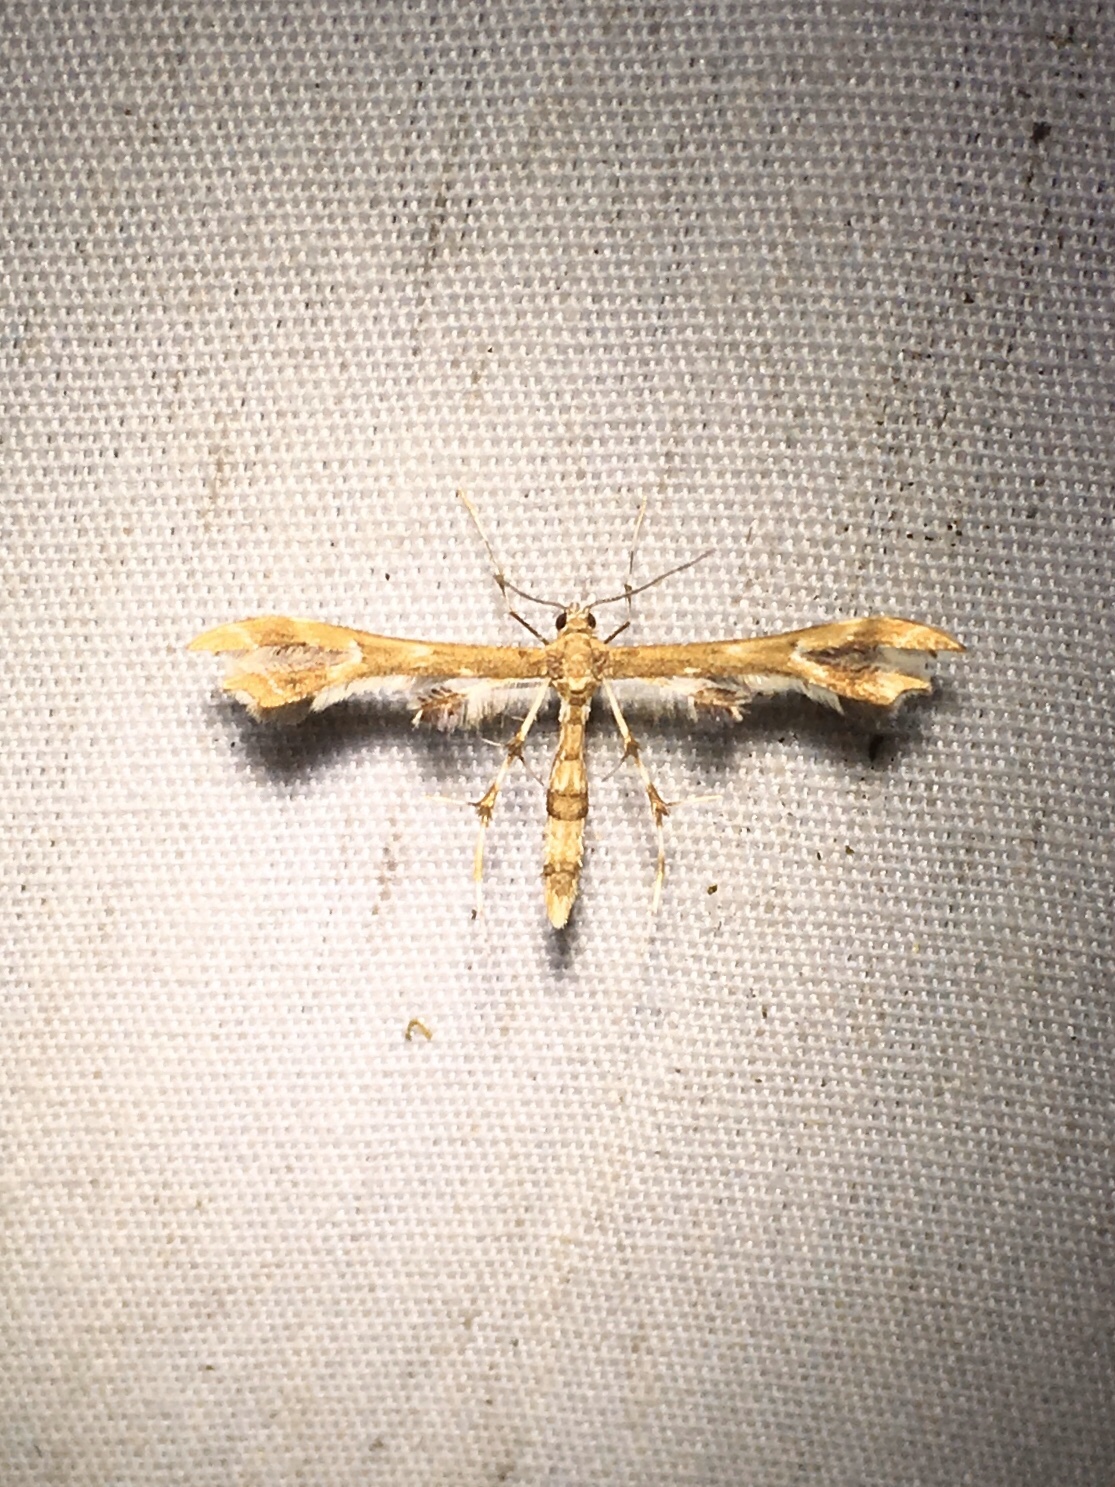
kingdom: Animalia
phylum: Arthropoda
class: Insecta
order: Lepidoptera
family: Pterophoridae
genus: Geina
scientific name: Geina
